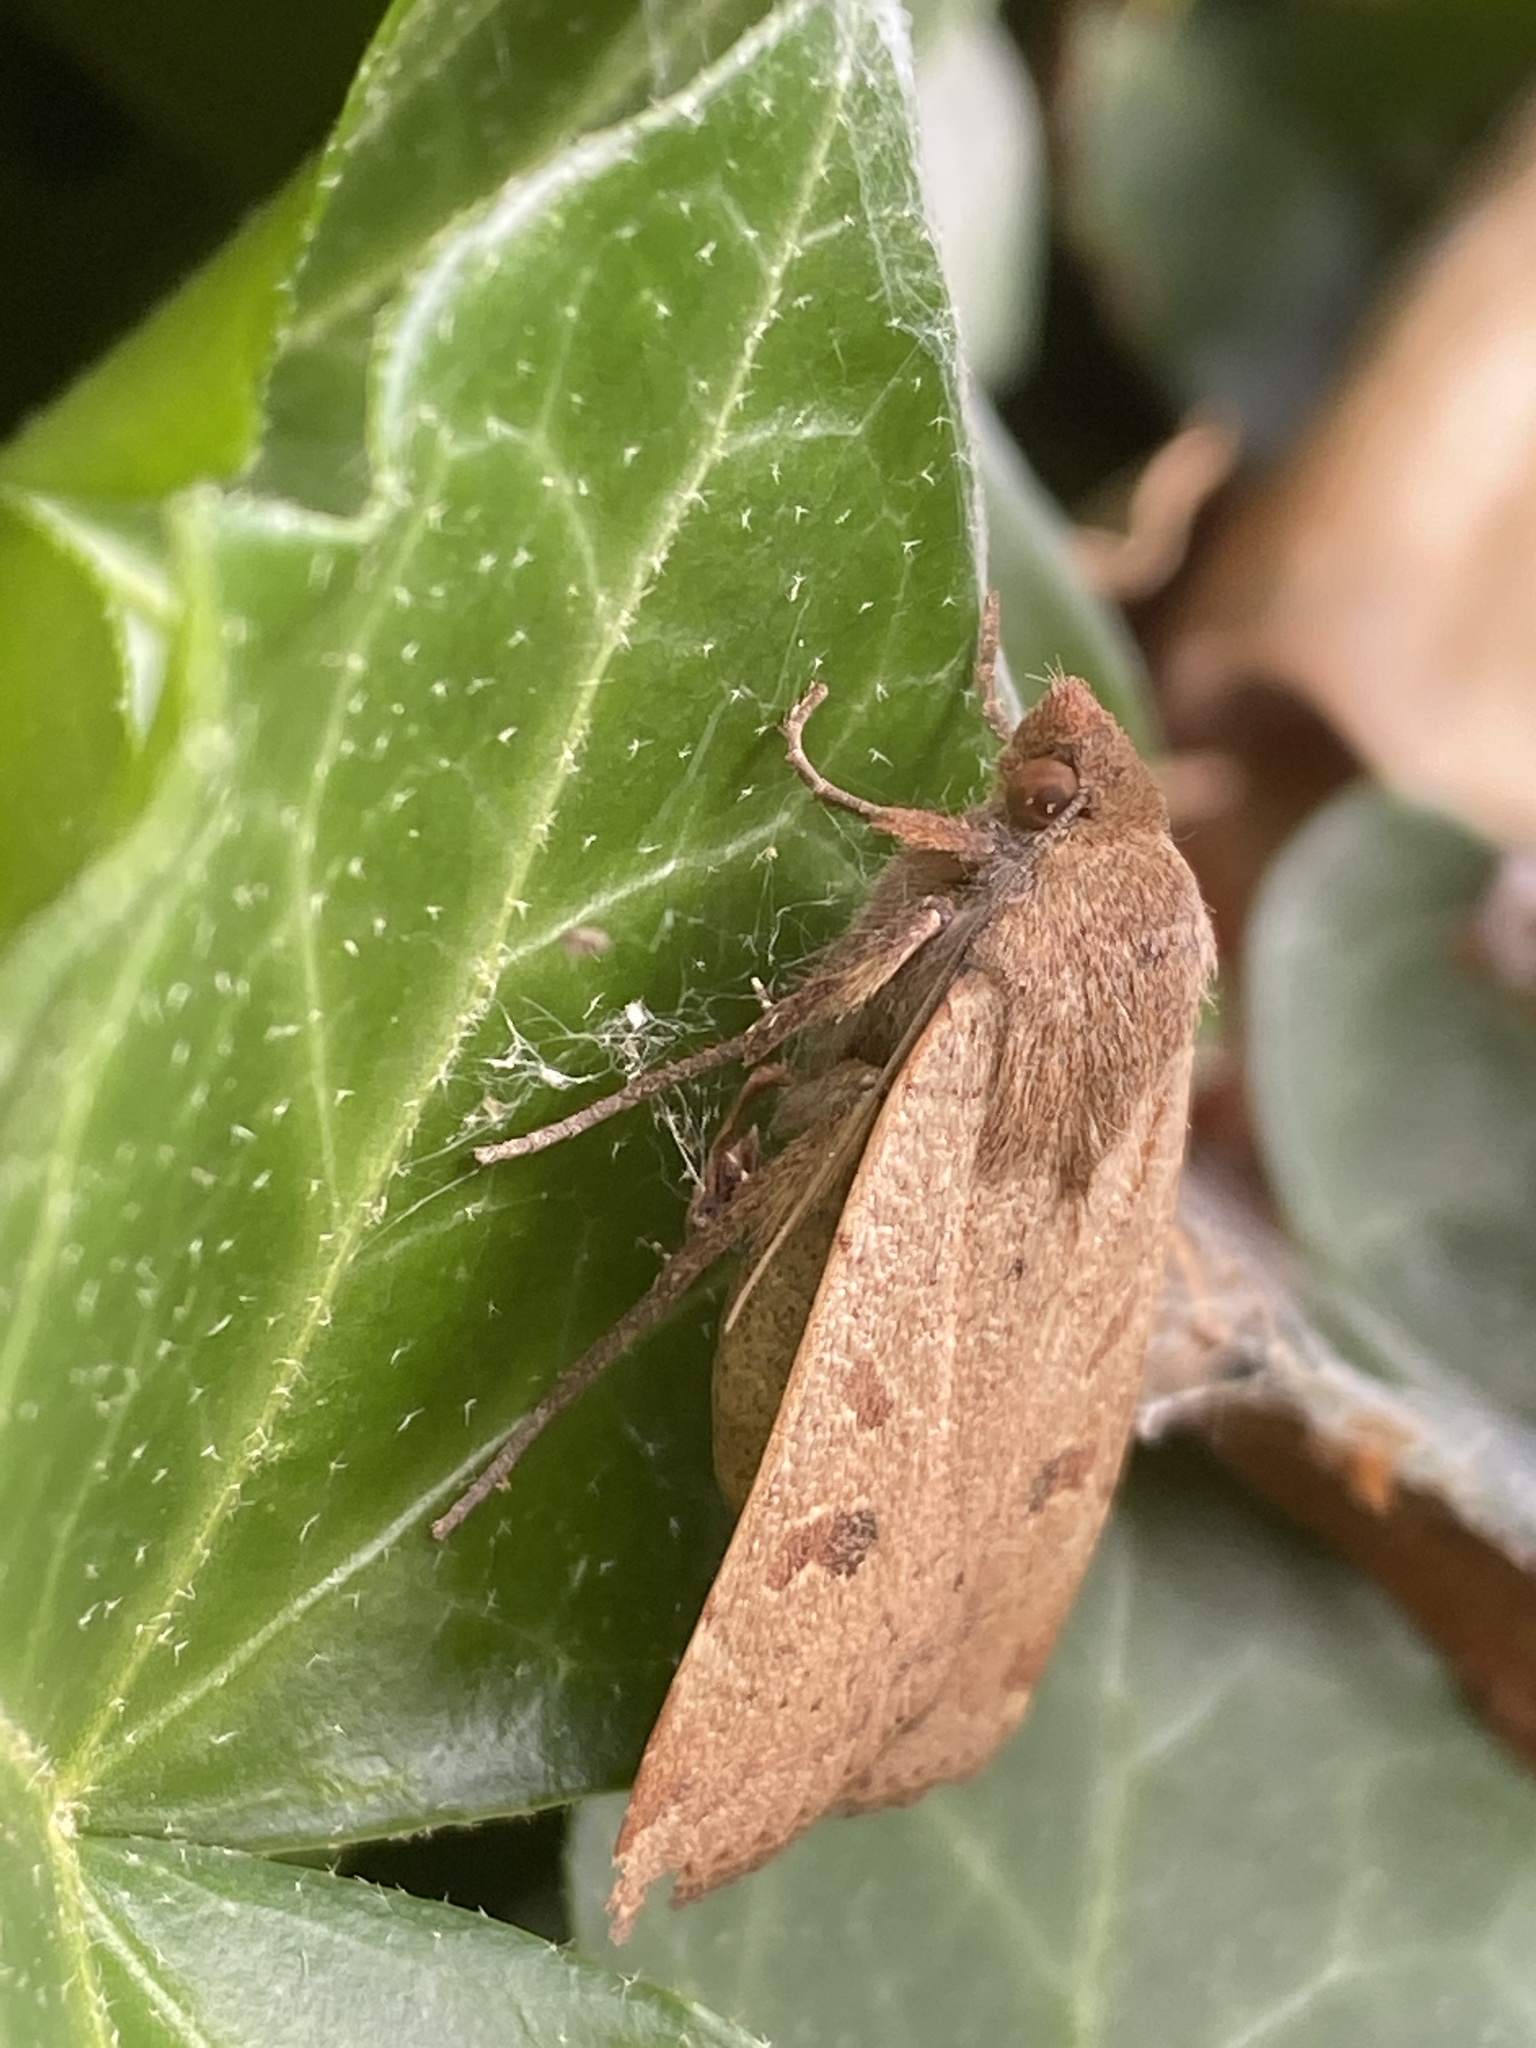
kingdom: Animalia
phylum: Arthropoda
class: Insecta
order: Lepidoptera
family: Noctuidae
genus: Noctua
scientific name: Noctua comes
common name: Lesser yellow underwing
